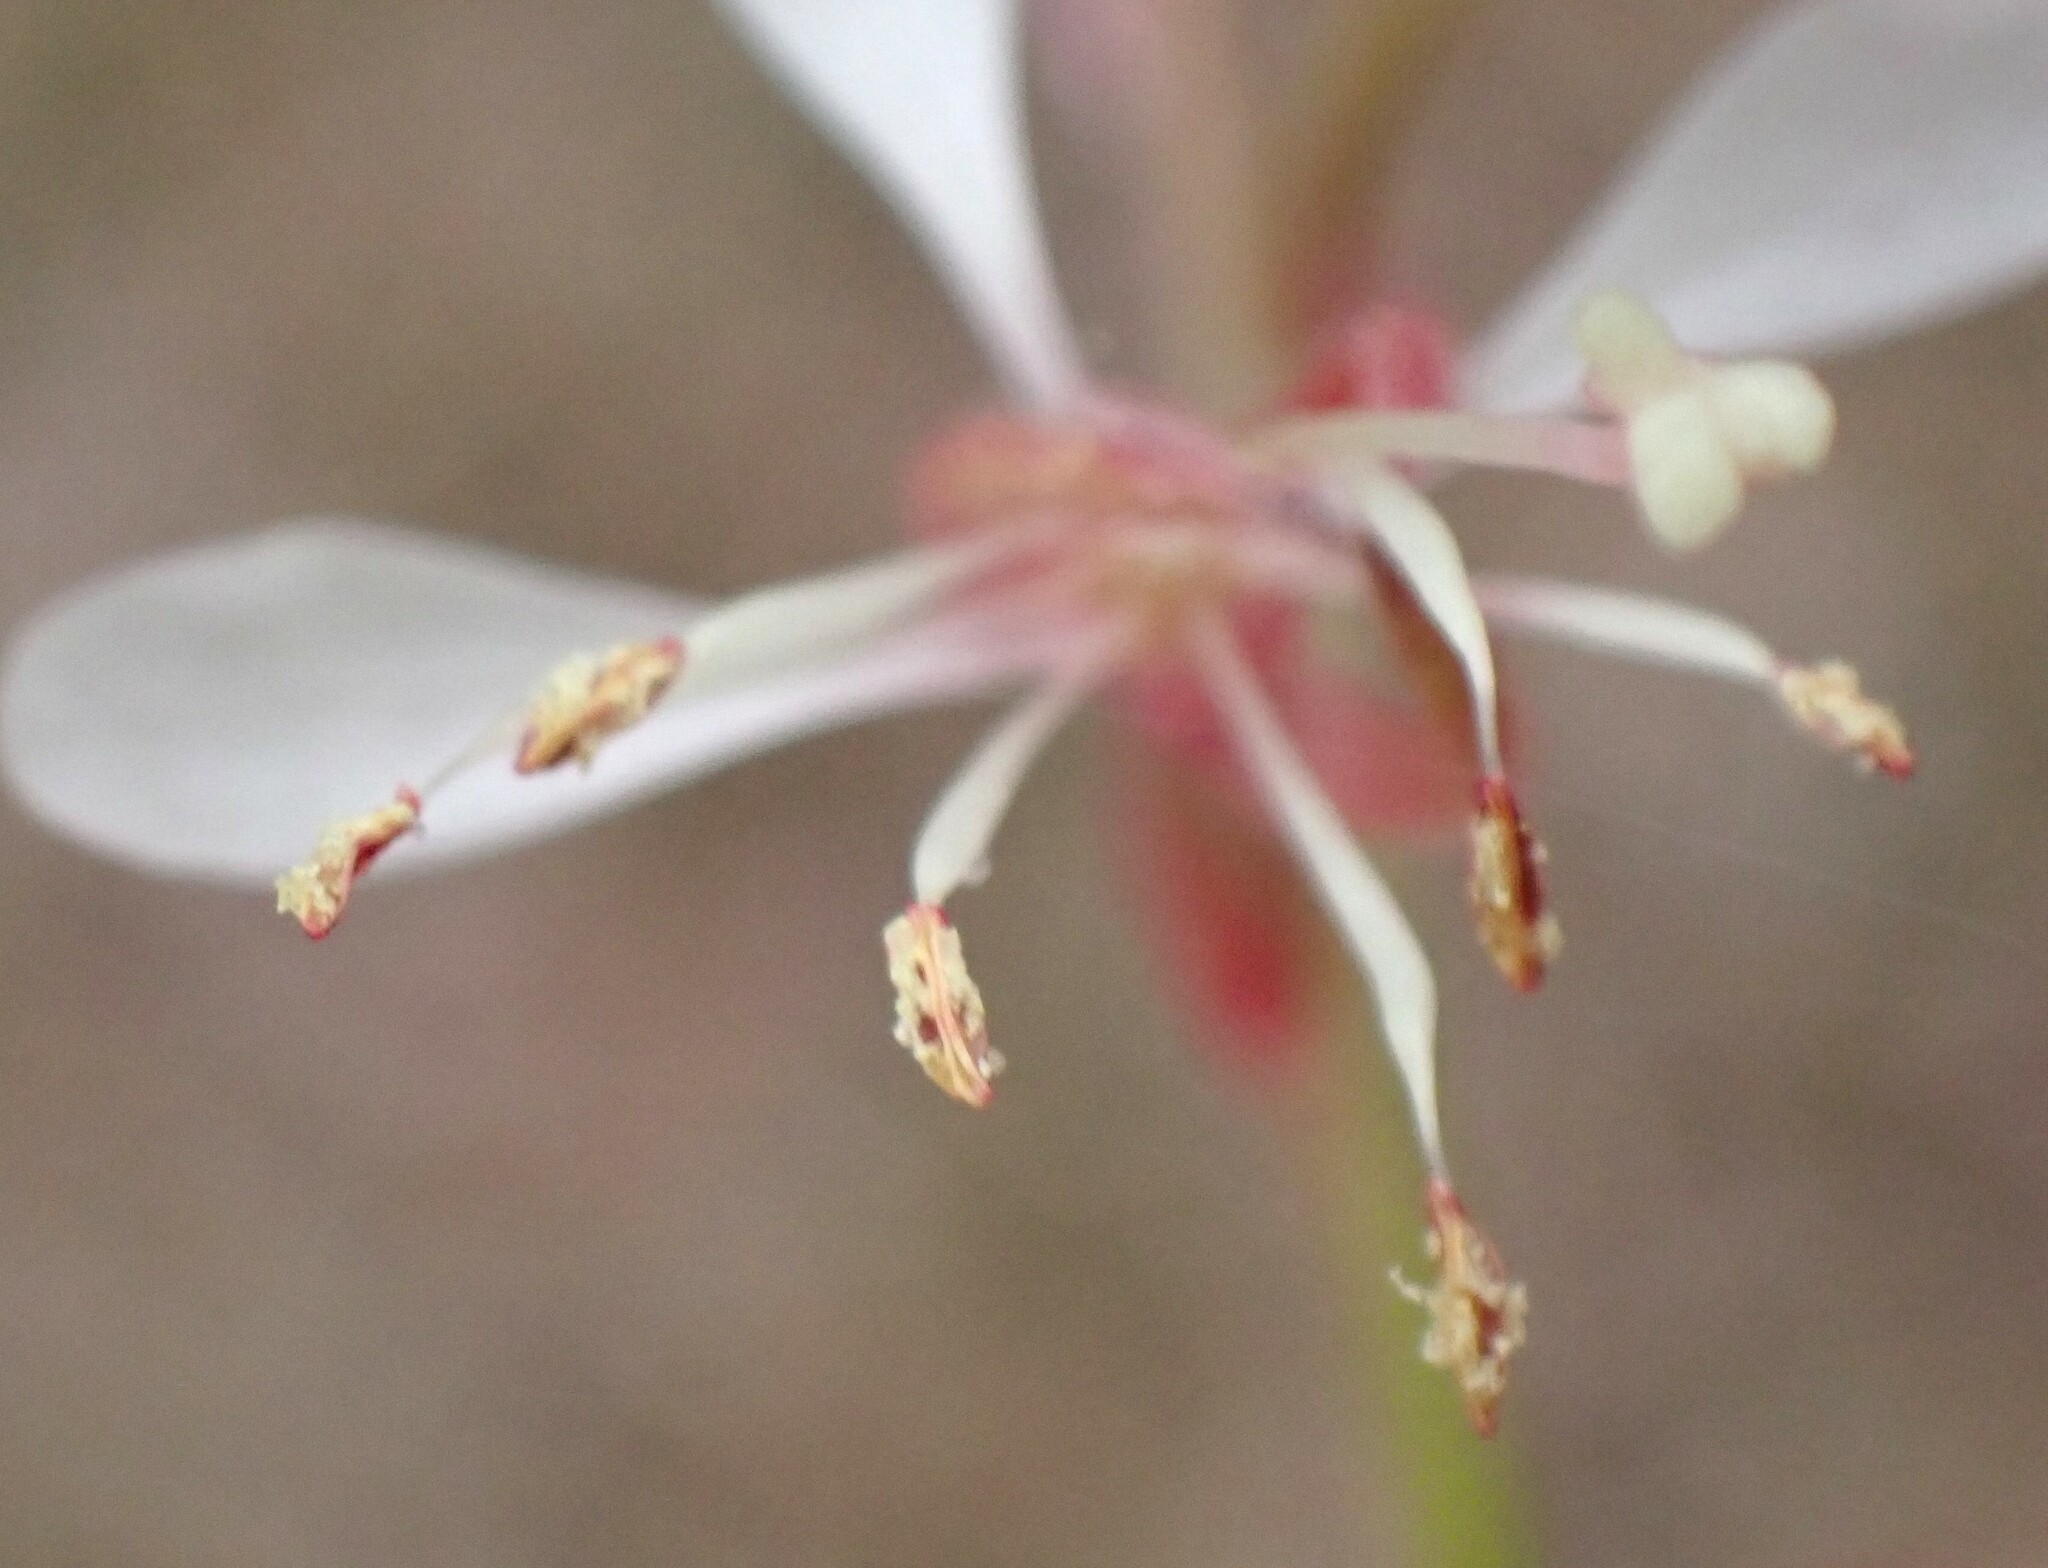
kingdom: Plantae
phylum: Tracheophyta
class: Magnoliopsida
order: Myrtales
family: Onagraceae
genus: Oenothera
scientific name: Oenothera simulans
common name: Southern beeblossom
